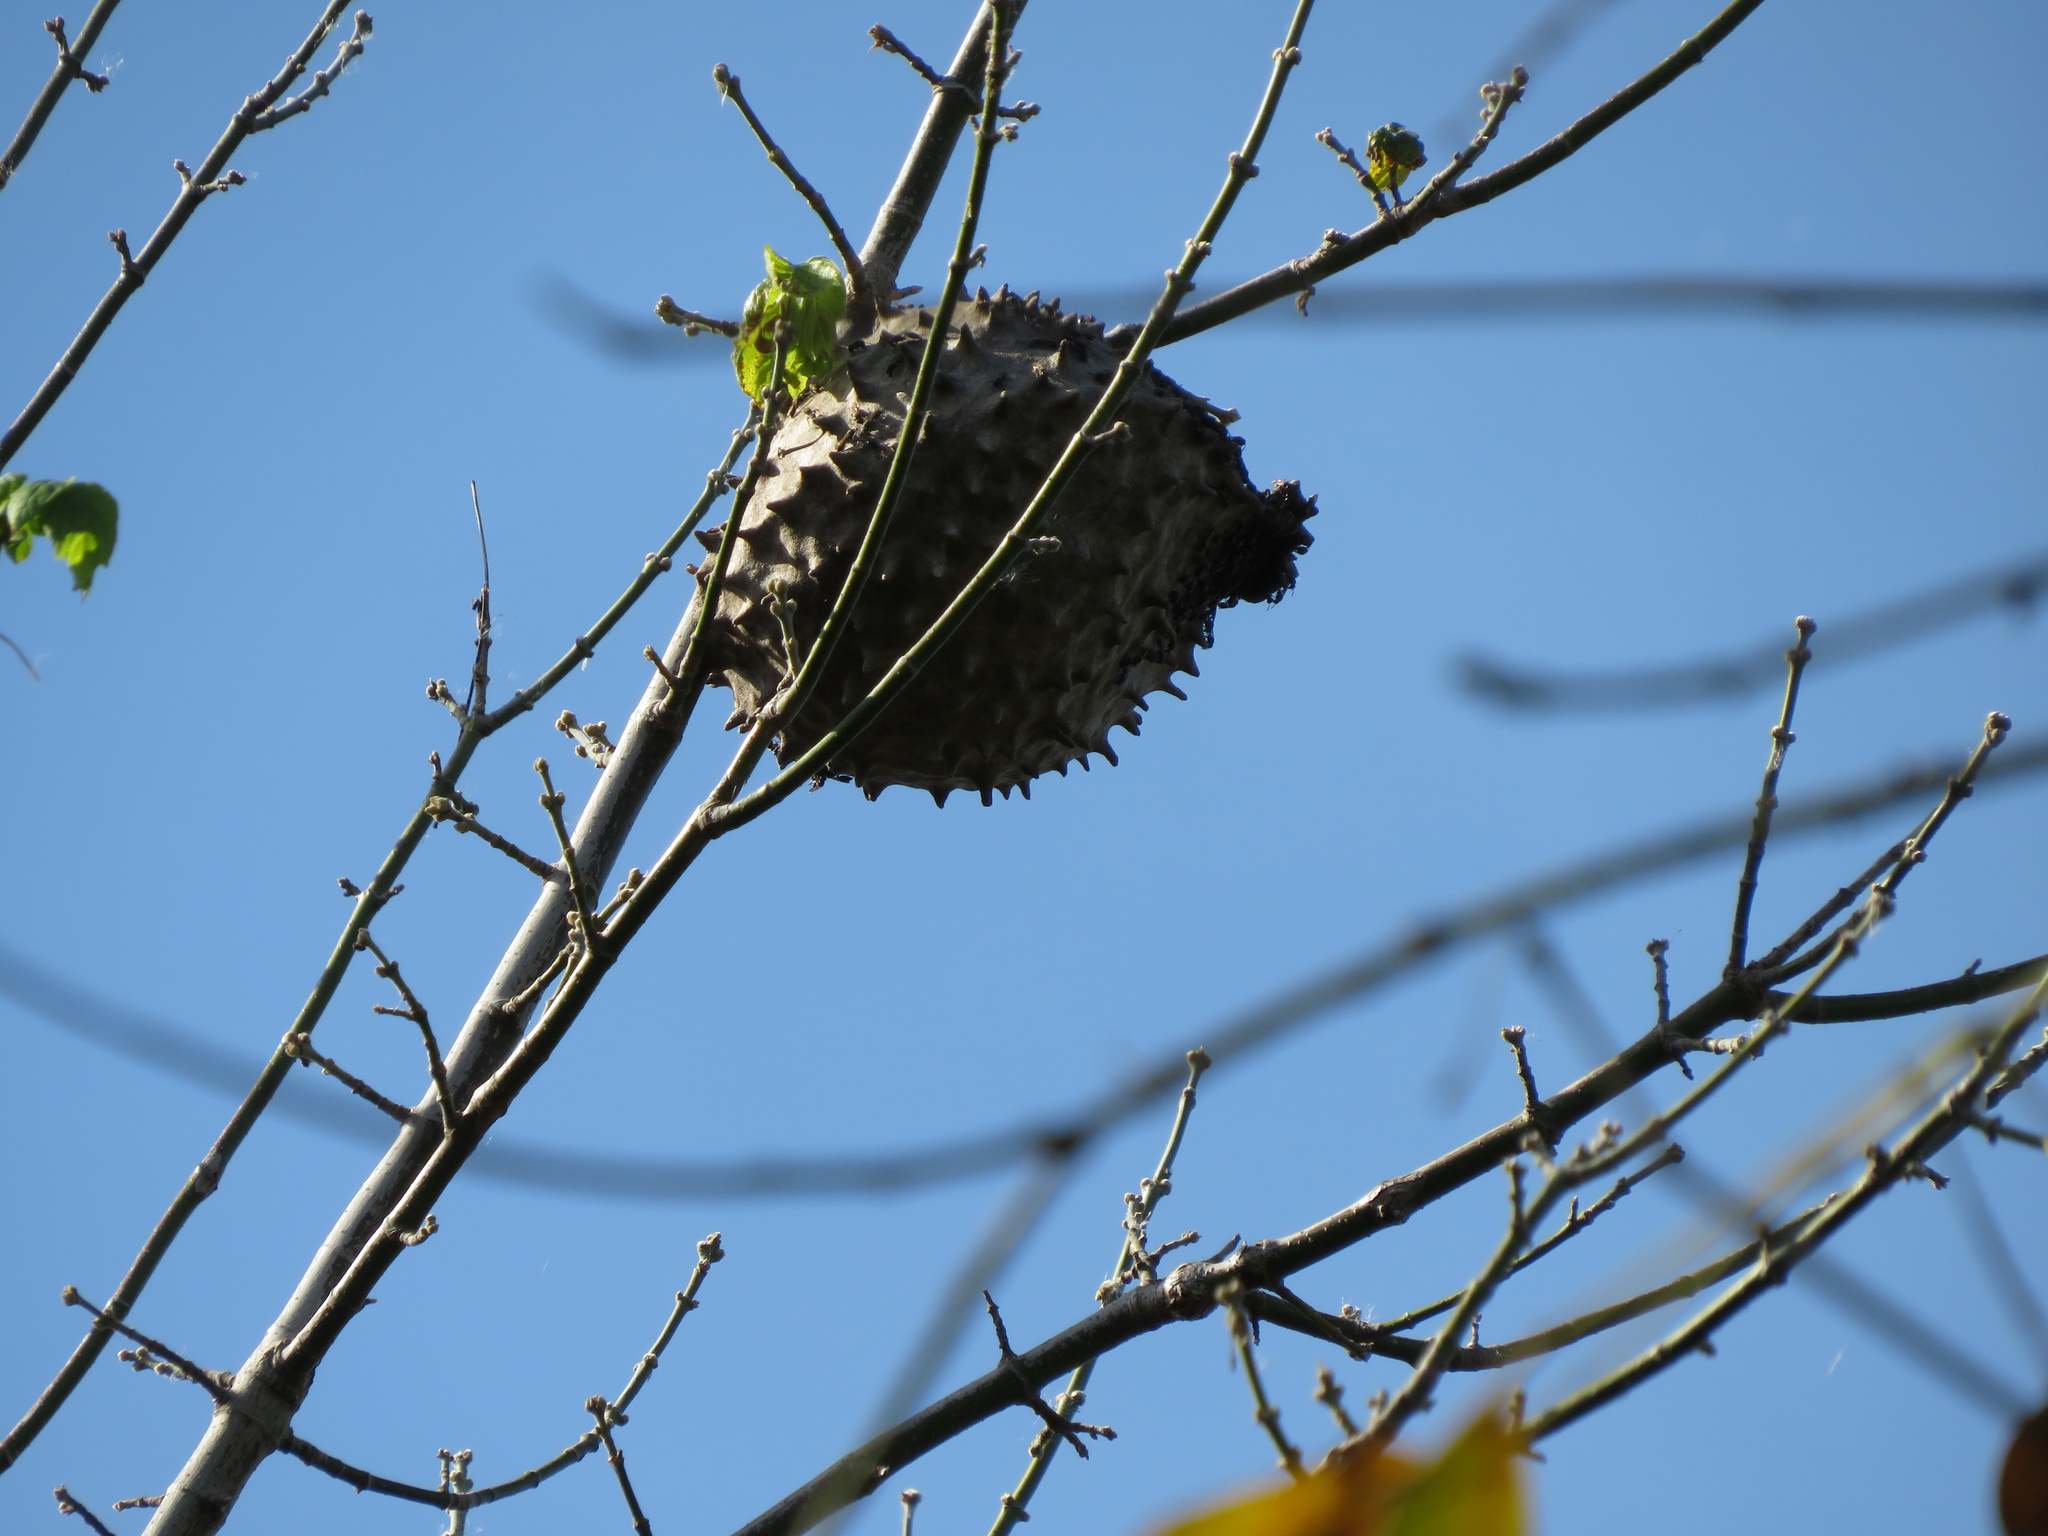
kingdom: Animalia
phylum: Arthropoda
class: Insecta
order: Hymenoptera
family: Eumenidae
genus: Polybia
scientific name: Polybia scutellaris
